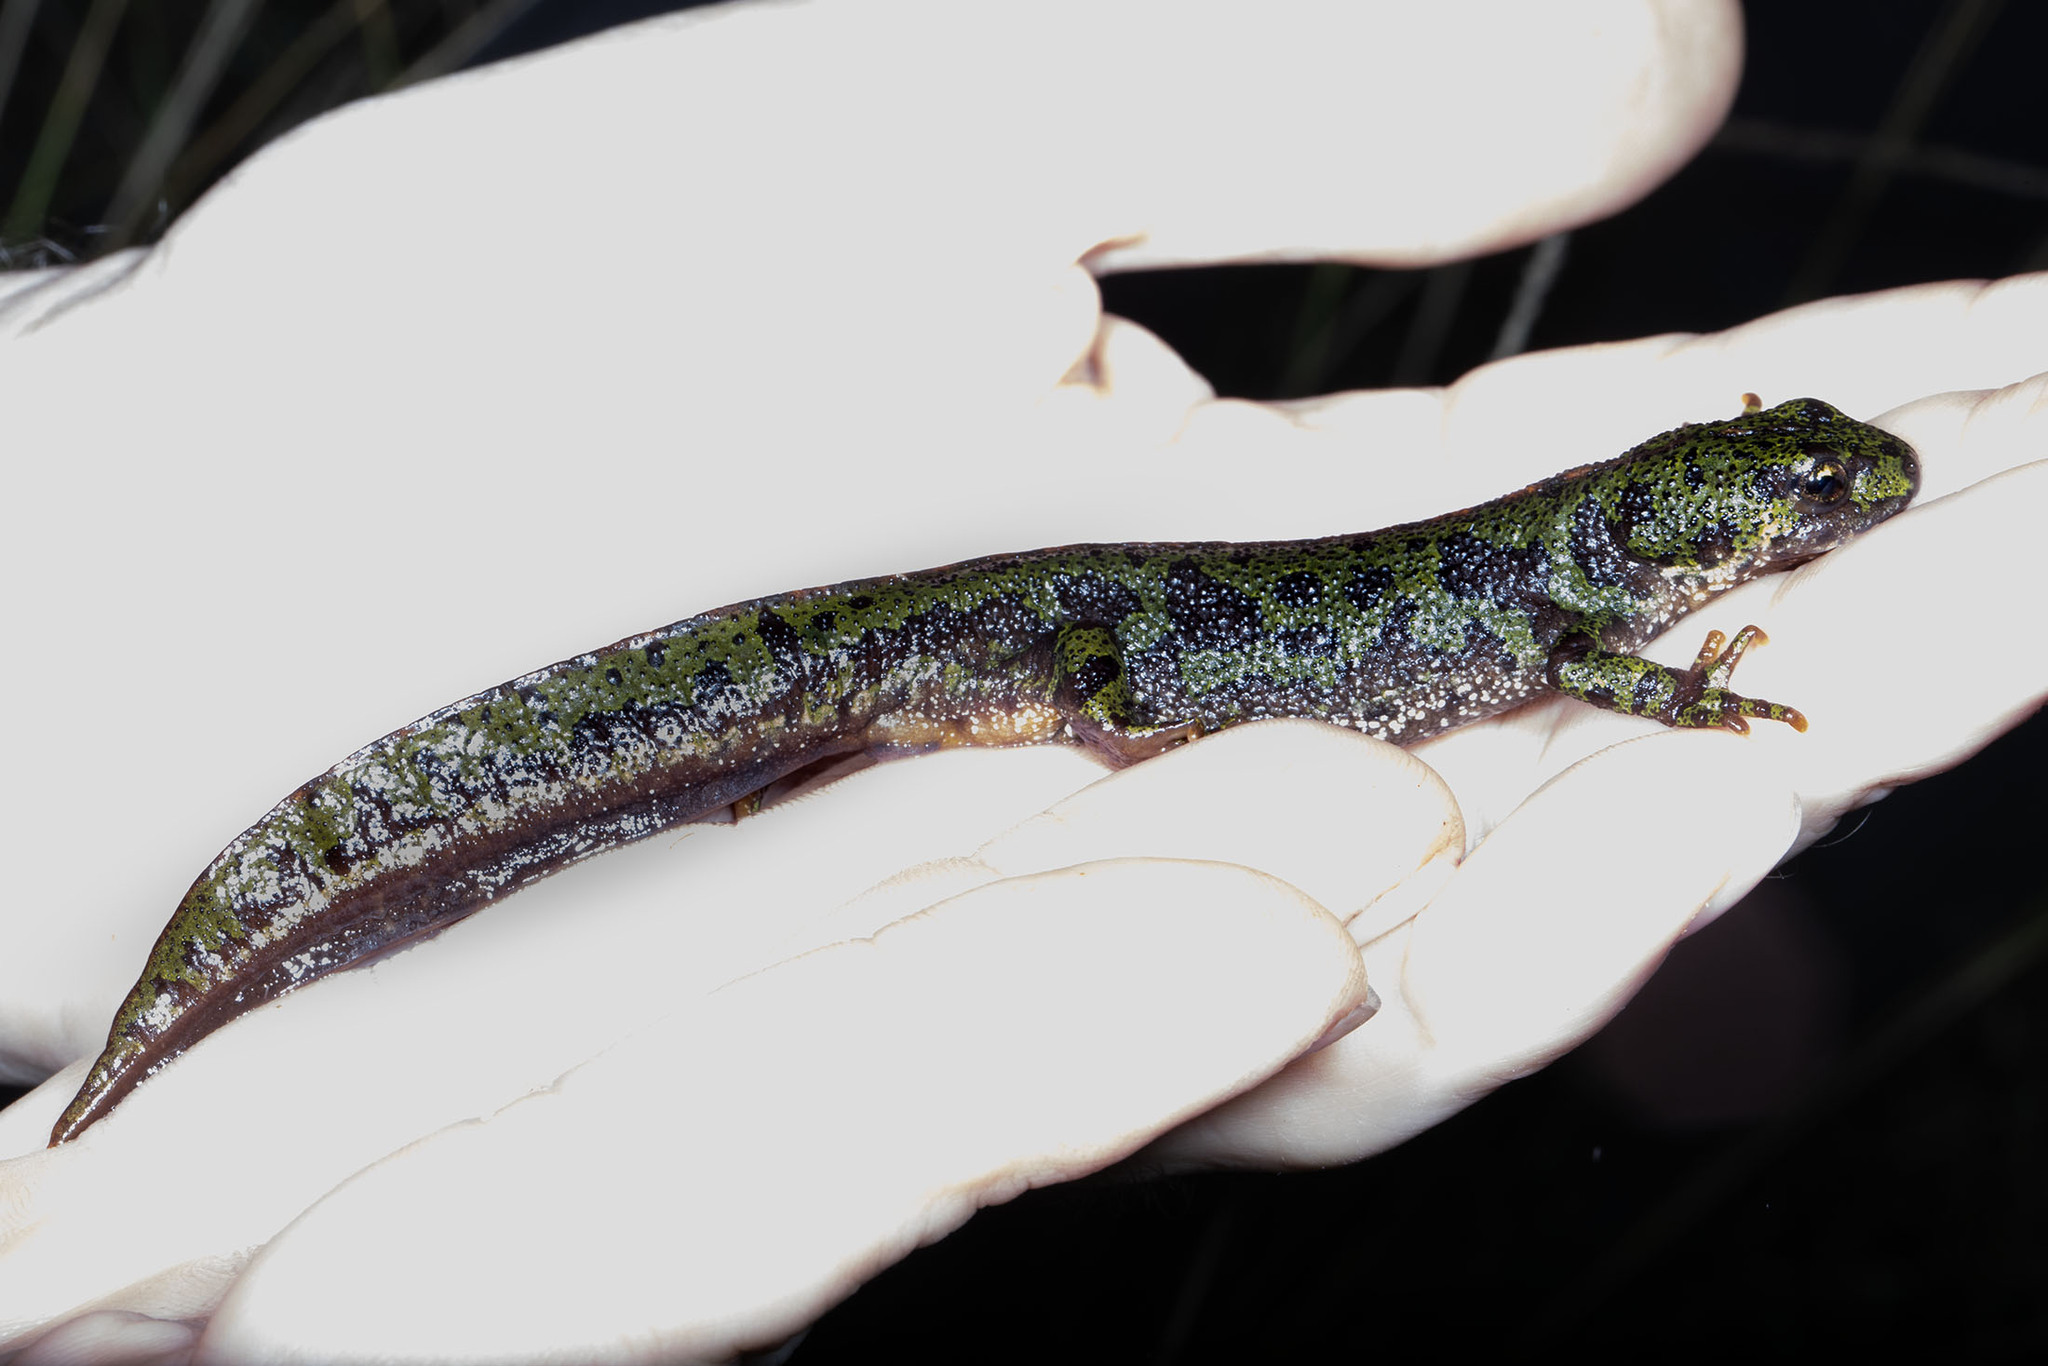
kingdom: Animalia
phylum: Chordata
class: Amphibia
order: Caudata
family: Salamandridae
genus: Triturus
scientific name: Triturus marmoratus
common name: Marbled newt
